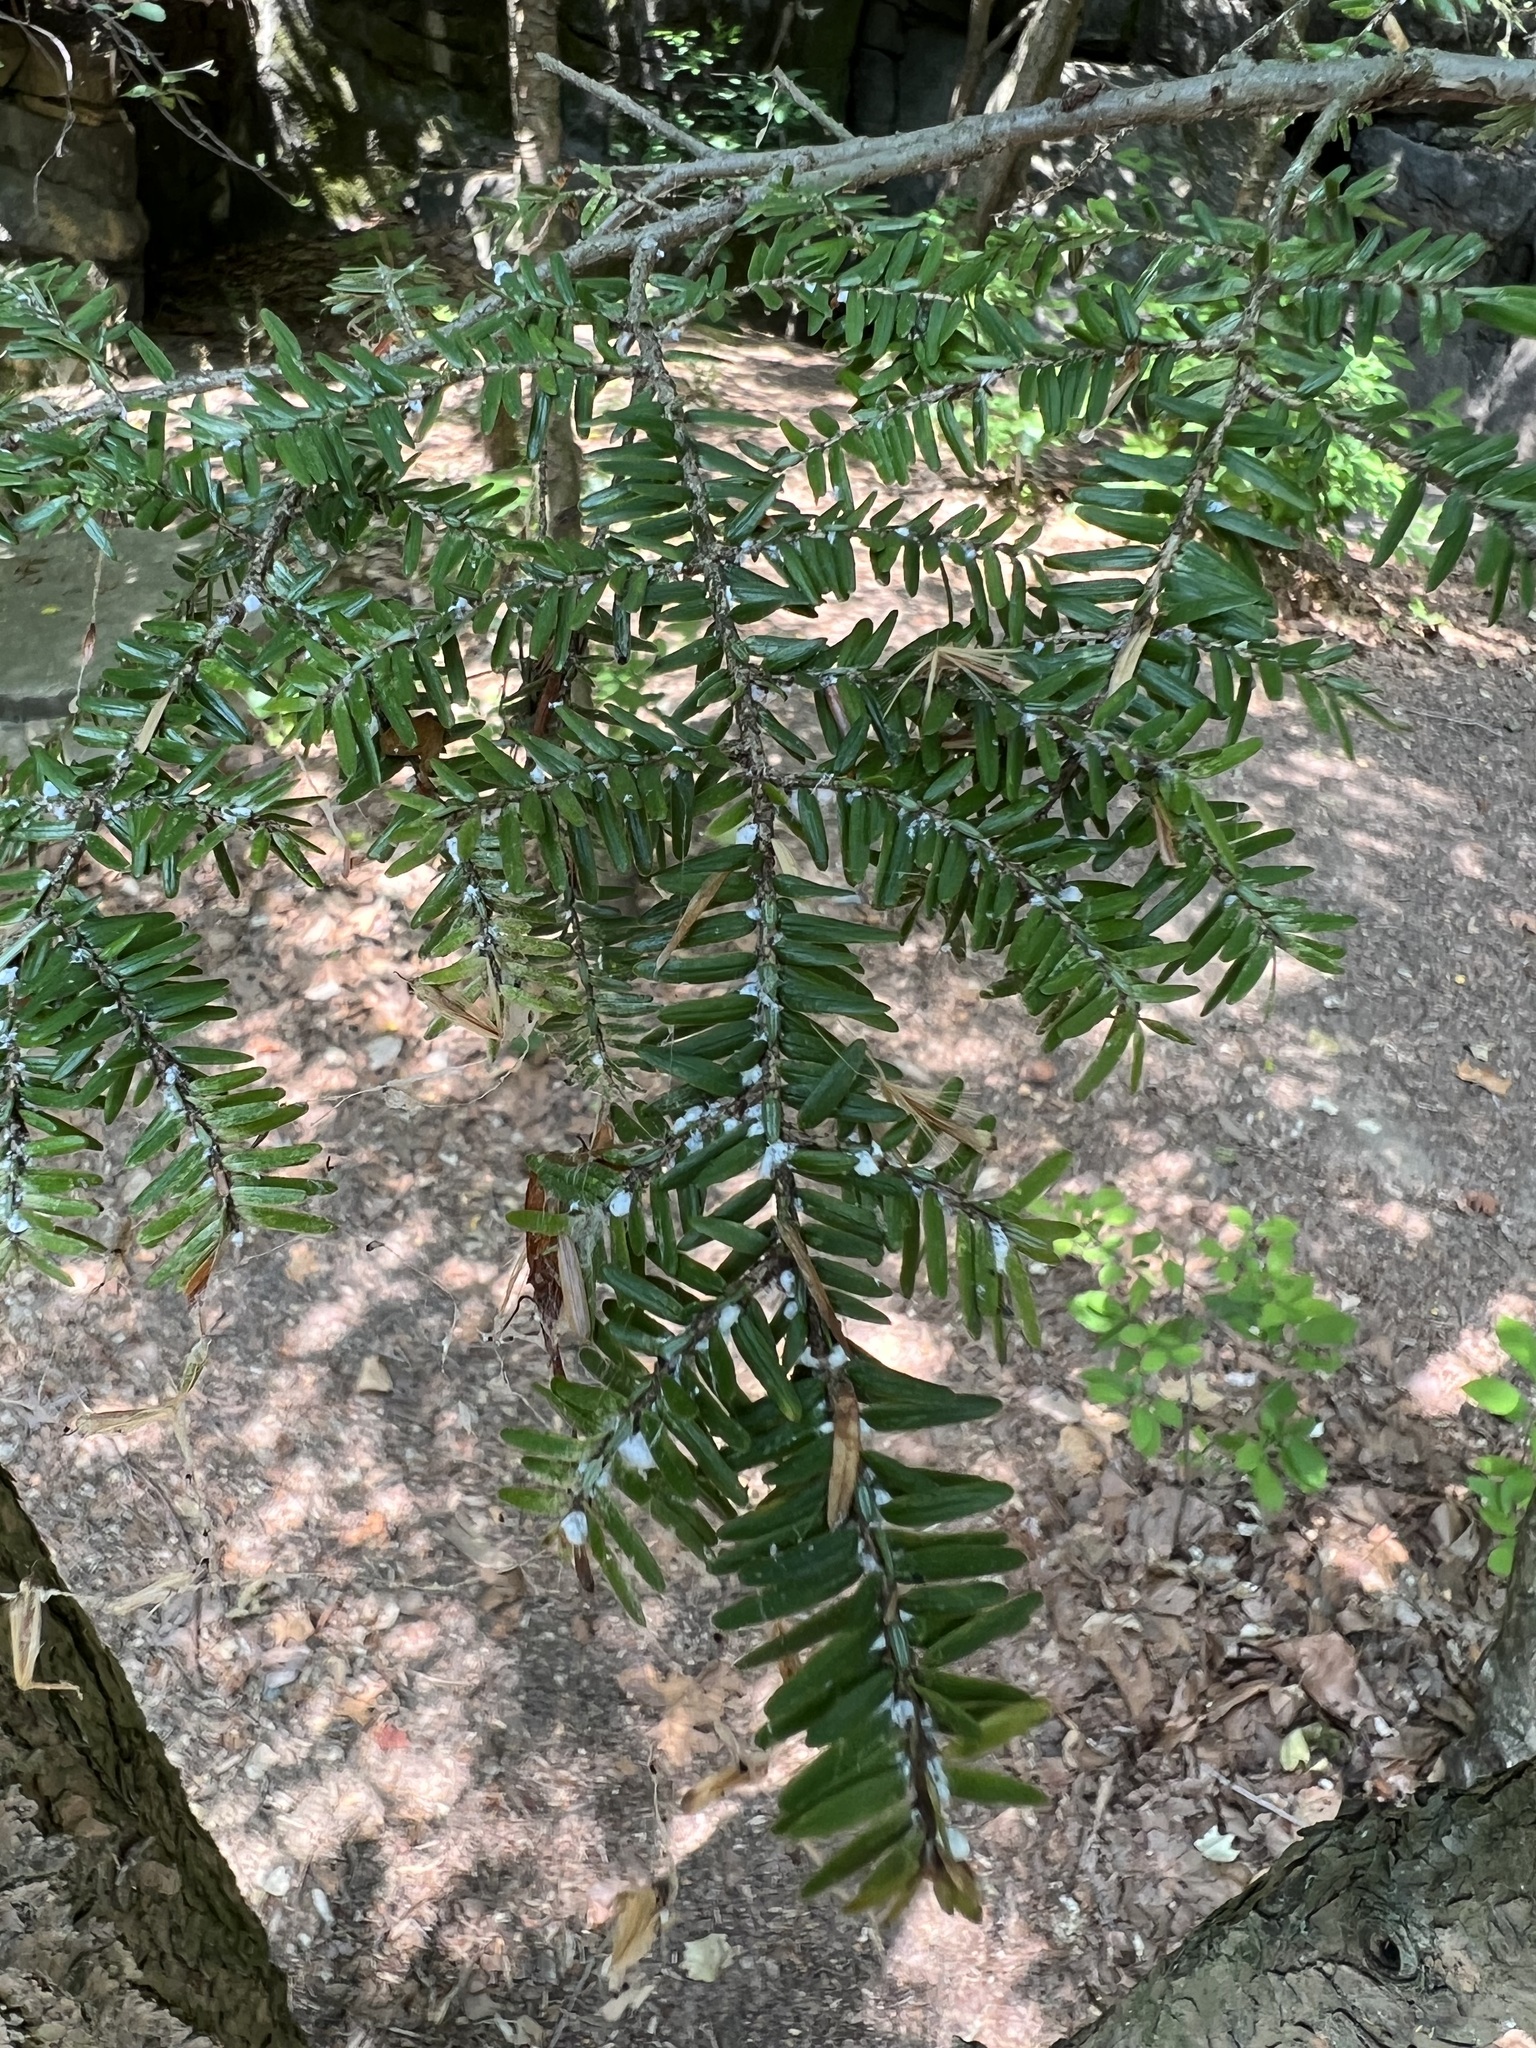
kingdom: Animalia
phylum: Arthropoda
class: Insecta
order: Hemiptera
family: Adelgidae
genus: Adelges
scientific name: Adelges tsugae
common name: Hemlock woolly adelgid
